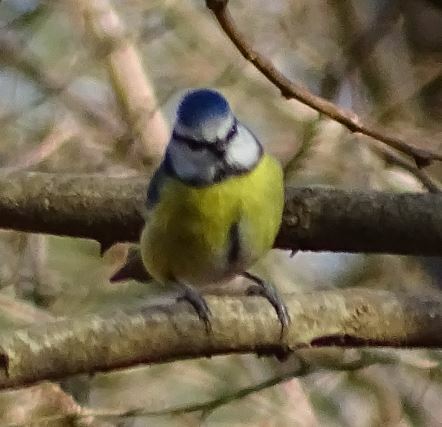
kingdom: Animalia
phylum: Chordata
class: Aves
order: Passeriformes
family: Paridae
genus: Cyanistes
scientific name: Cyanistes caeruleus
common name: Eurasian blue tit
